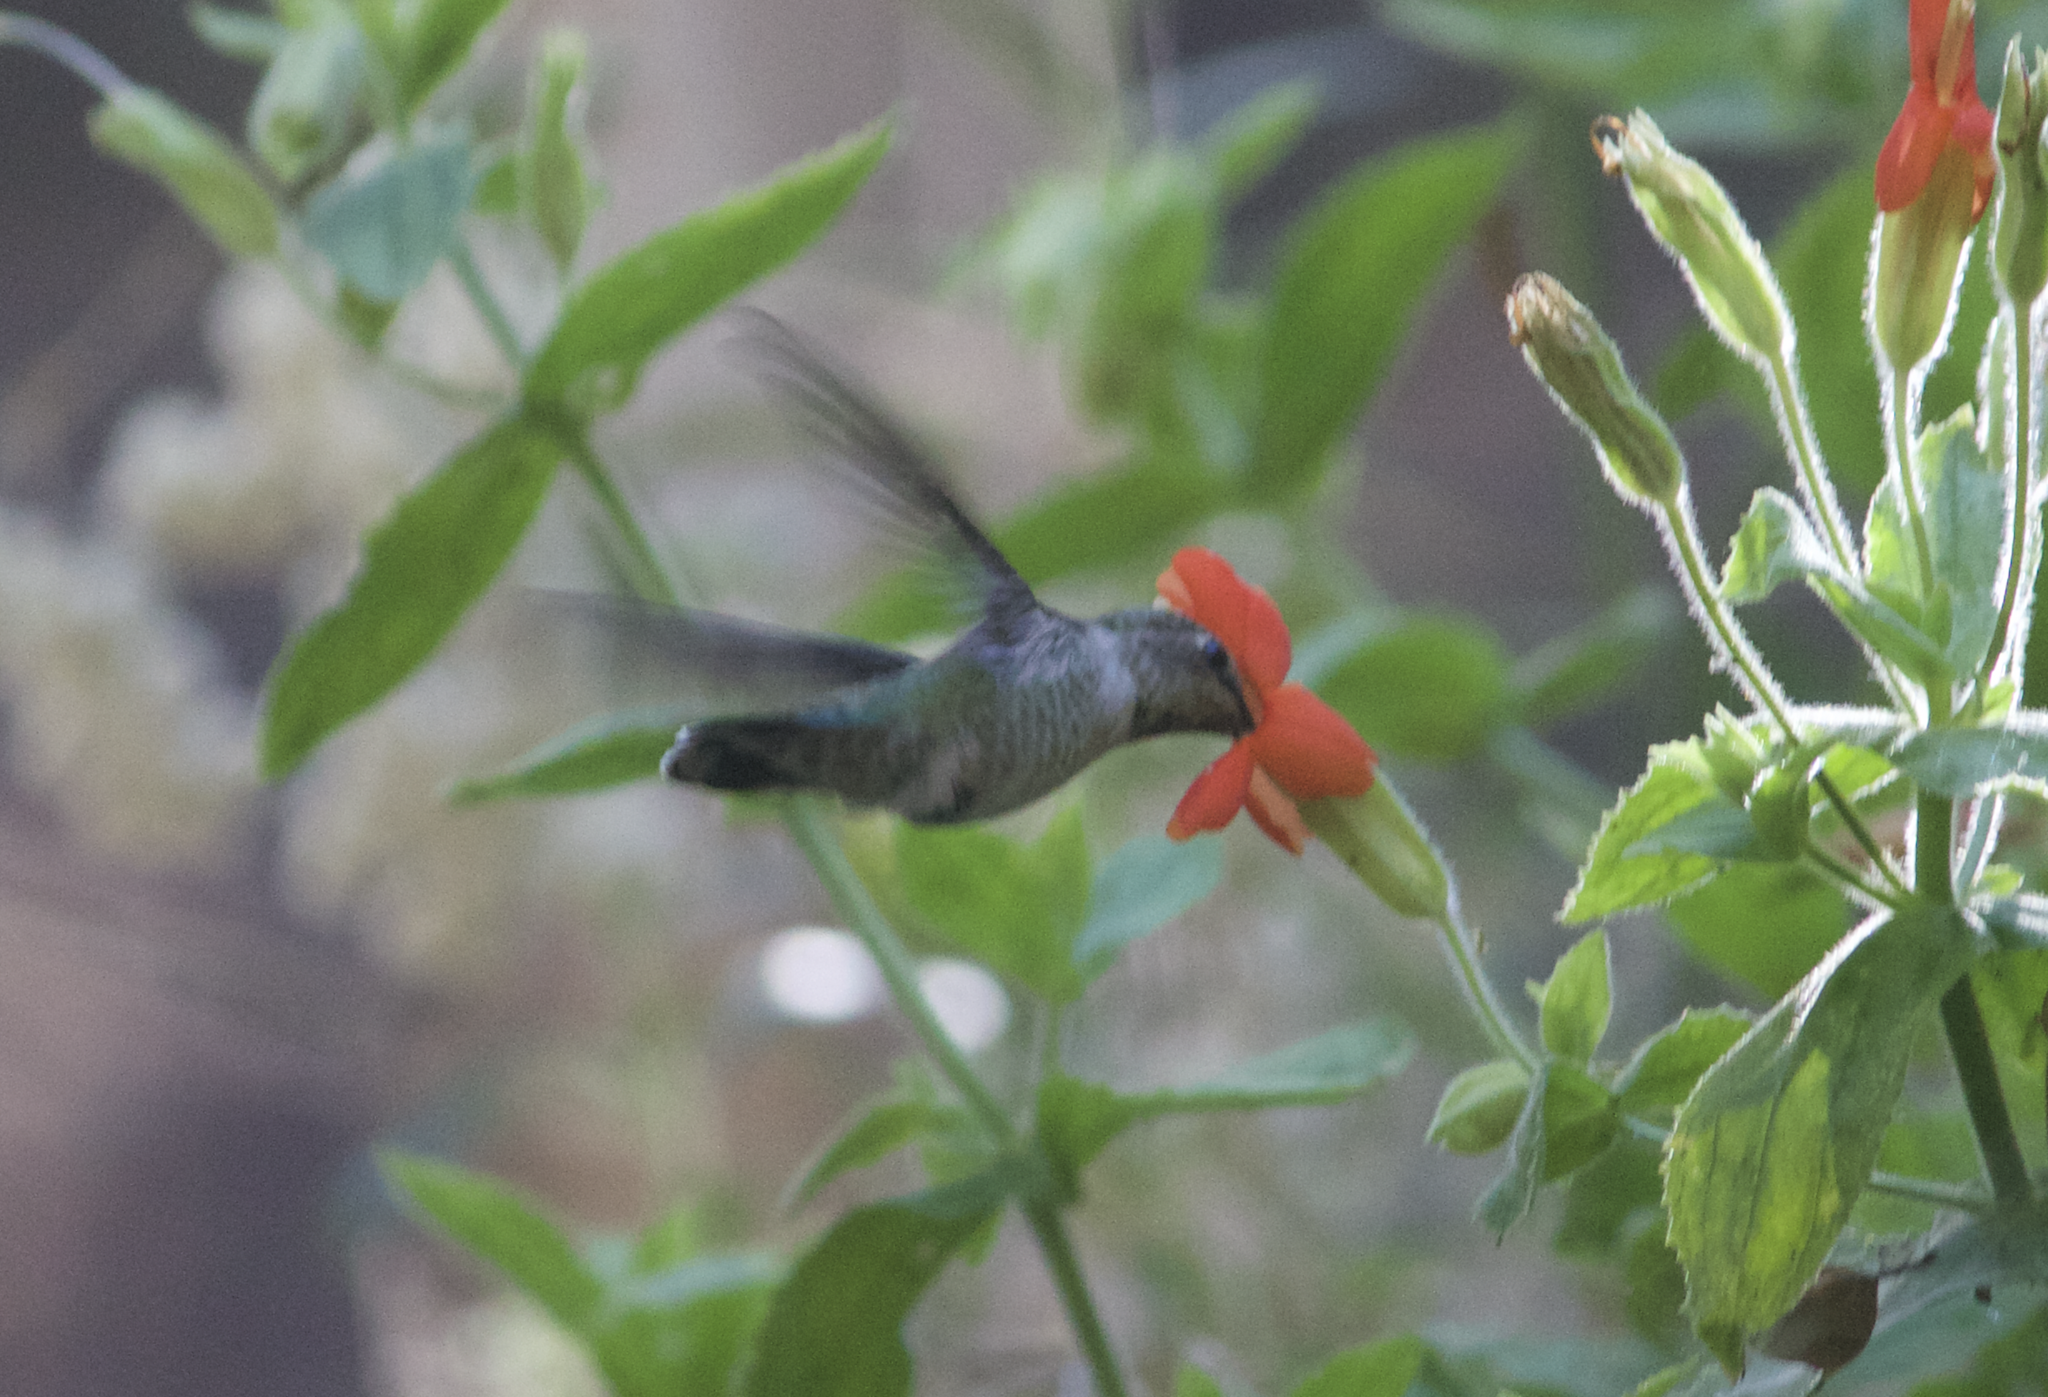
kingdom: Animalia
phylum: Chordata
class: Aves
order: Apodiformes
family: Trochilidae
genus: Calypte
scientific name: Calypte anna
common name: Anna's hummingbird
